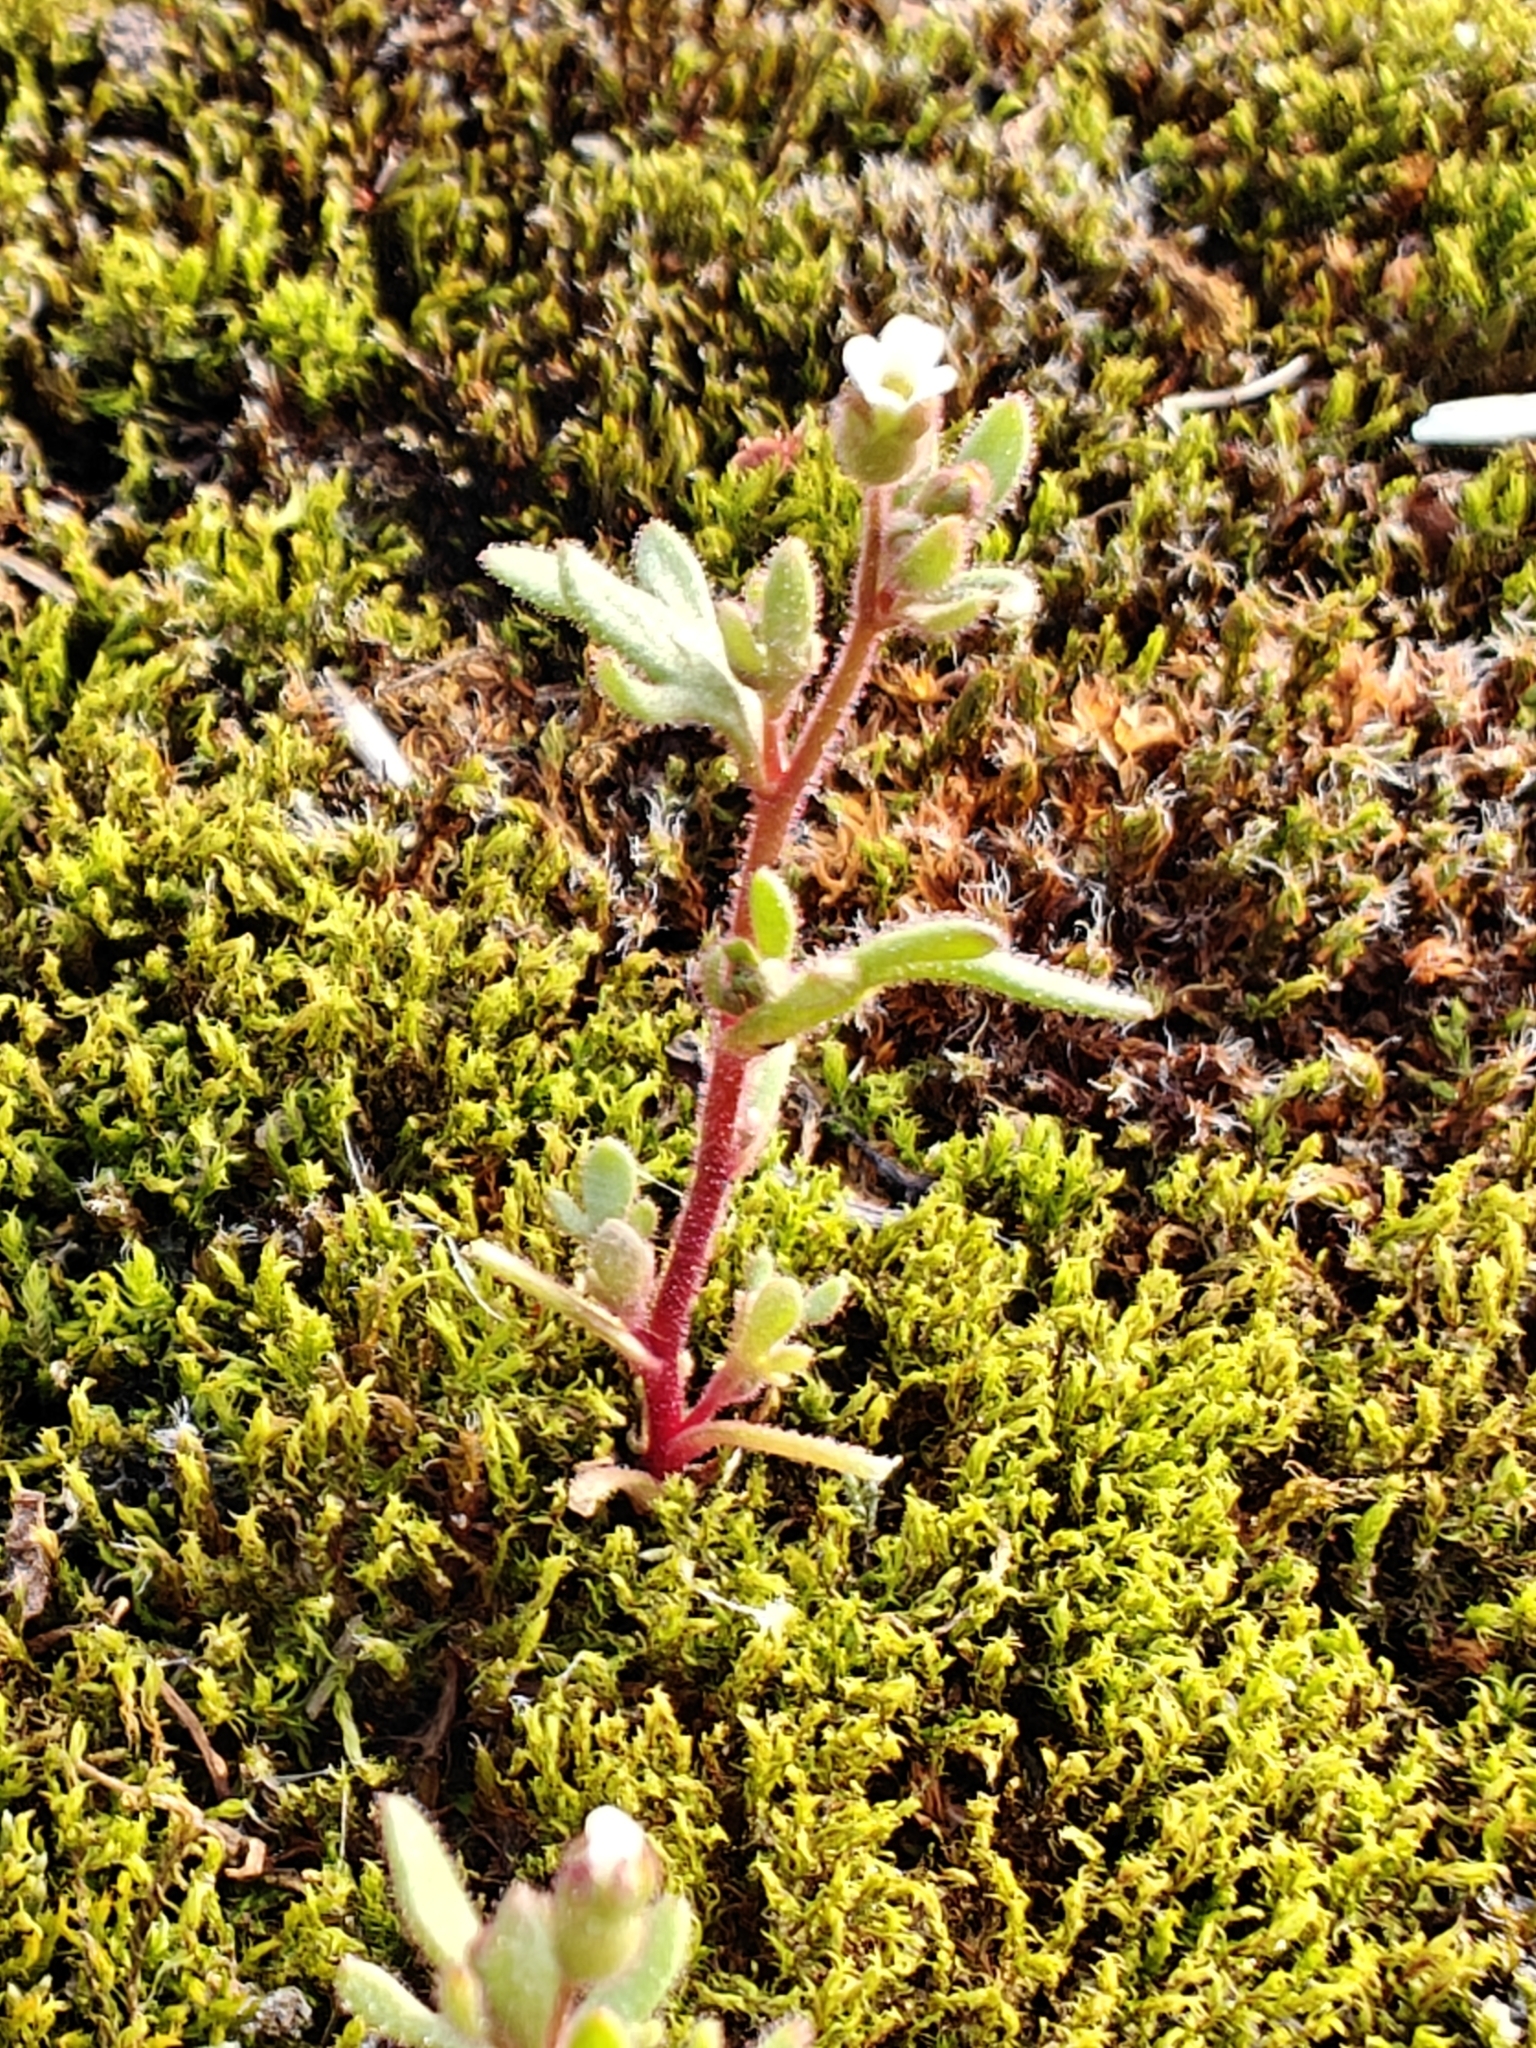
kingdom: Plantae
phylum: Tracheophyta
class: Magnoliopsida
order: Saxifragales
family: Saxifragaceae
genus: Saxifraga
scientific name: Saxifraga tridactylites
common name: Rue-leaved saxifrage
